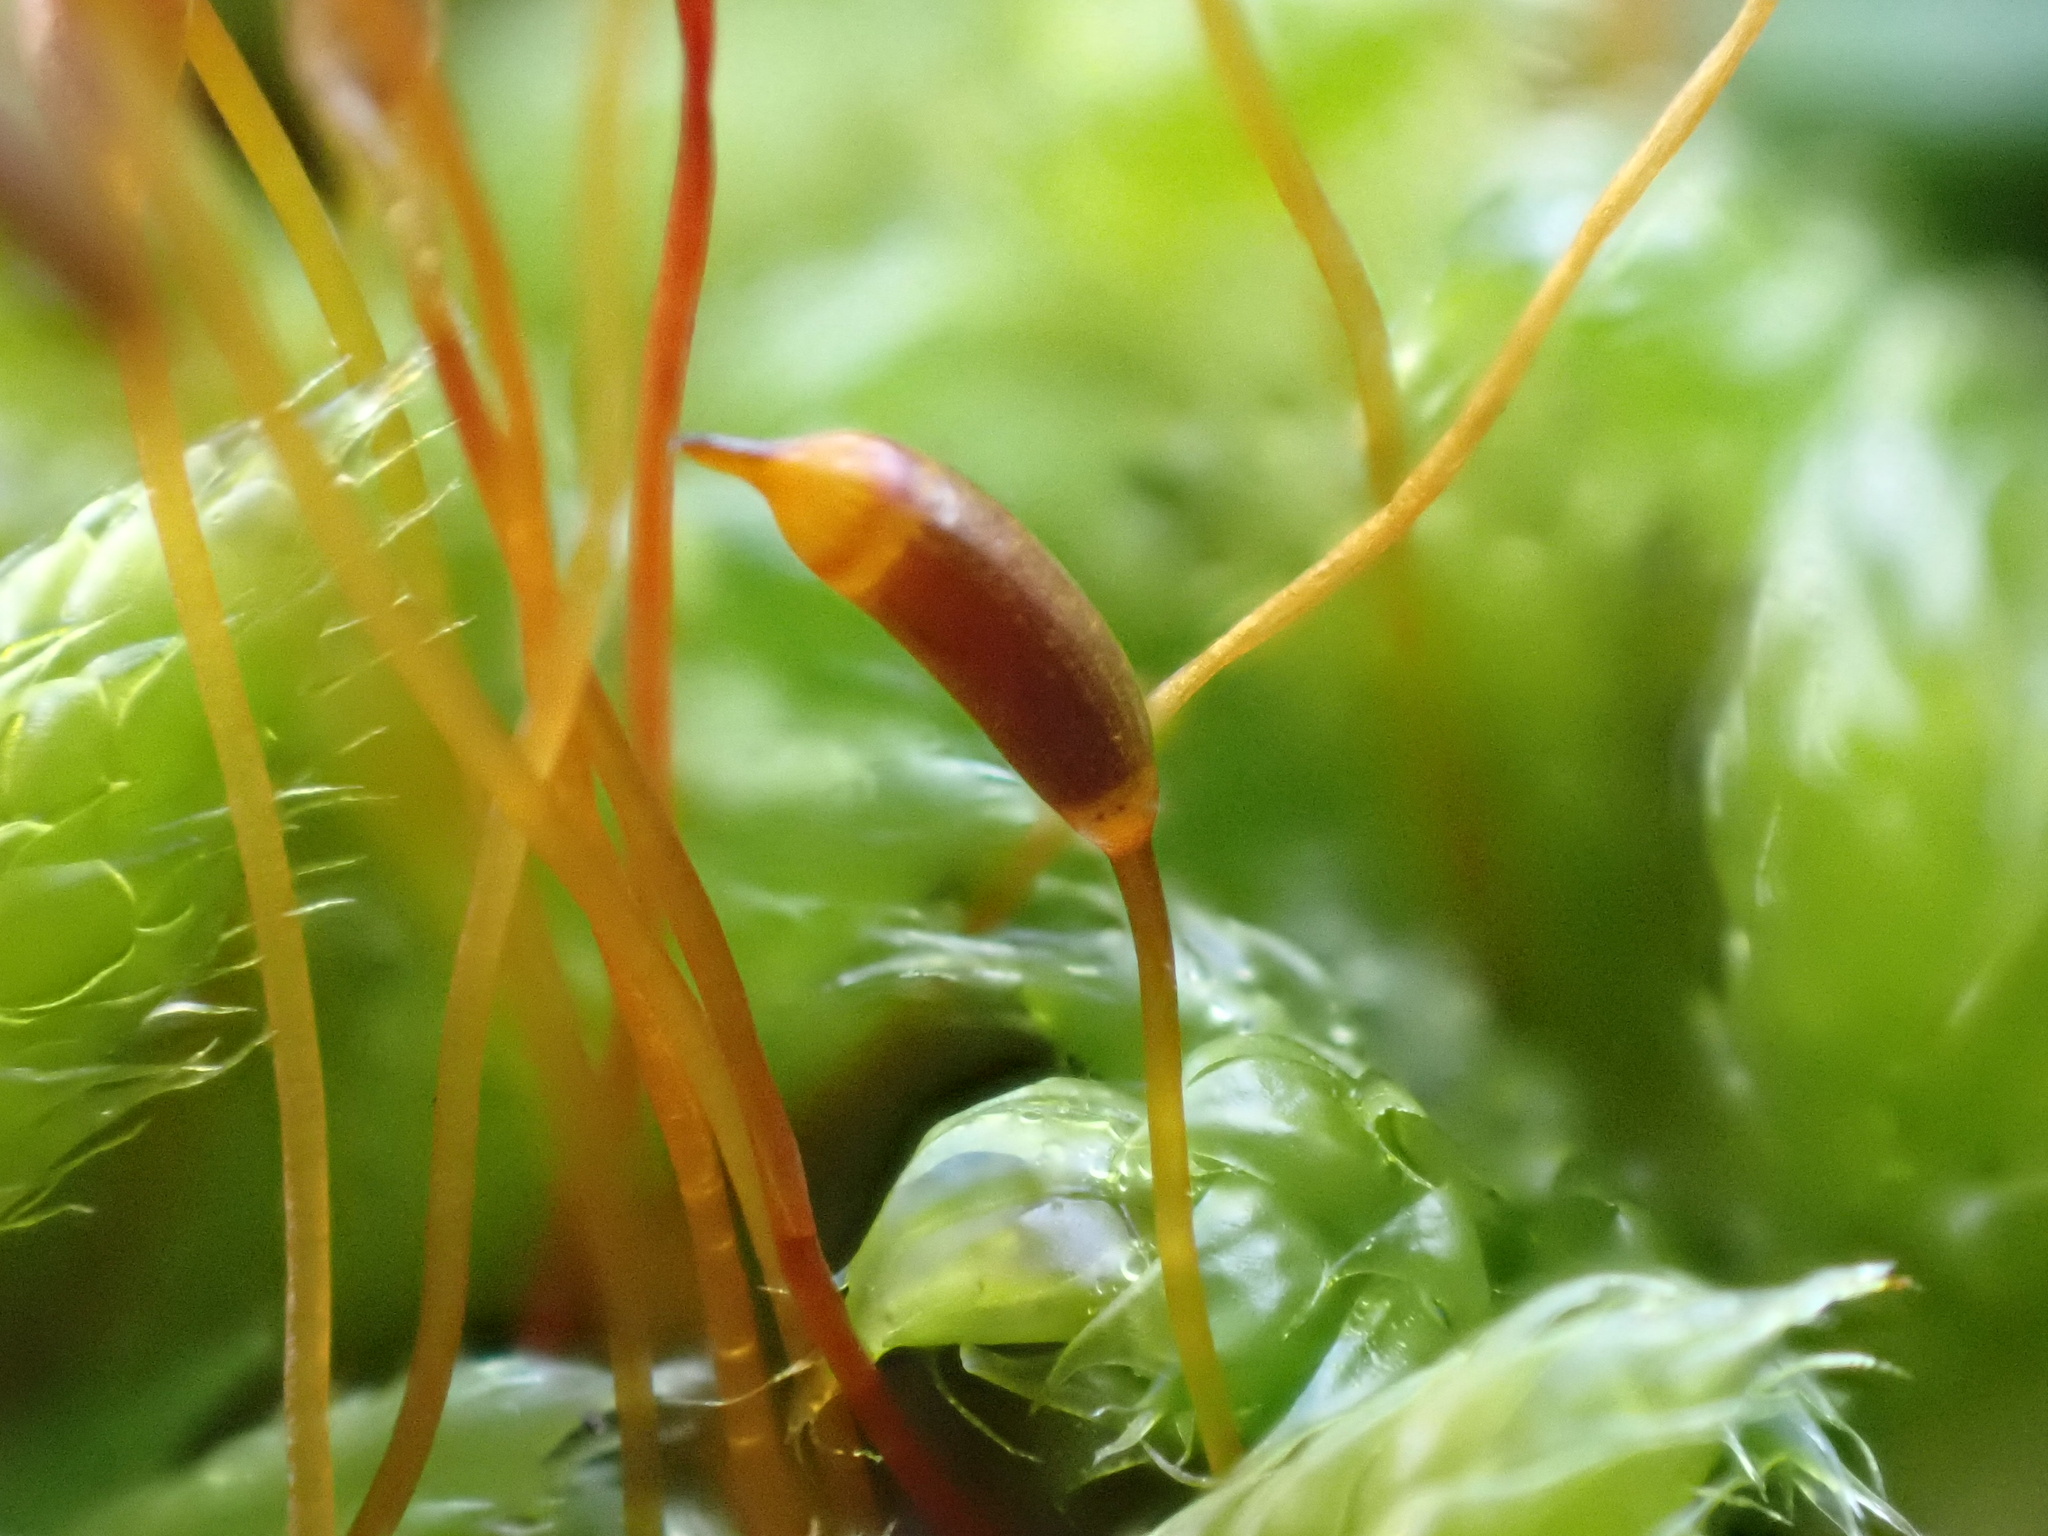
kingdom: Plantae
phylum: Bryophyta
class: Bryopsida
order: Hypnales
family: Hypnaceae
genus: Hypnum
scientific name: Hypnum cupressiforme
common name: Cypress-leaved plait-moss
